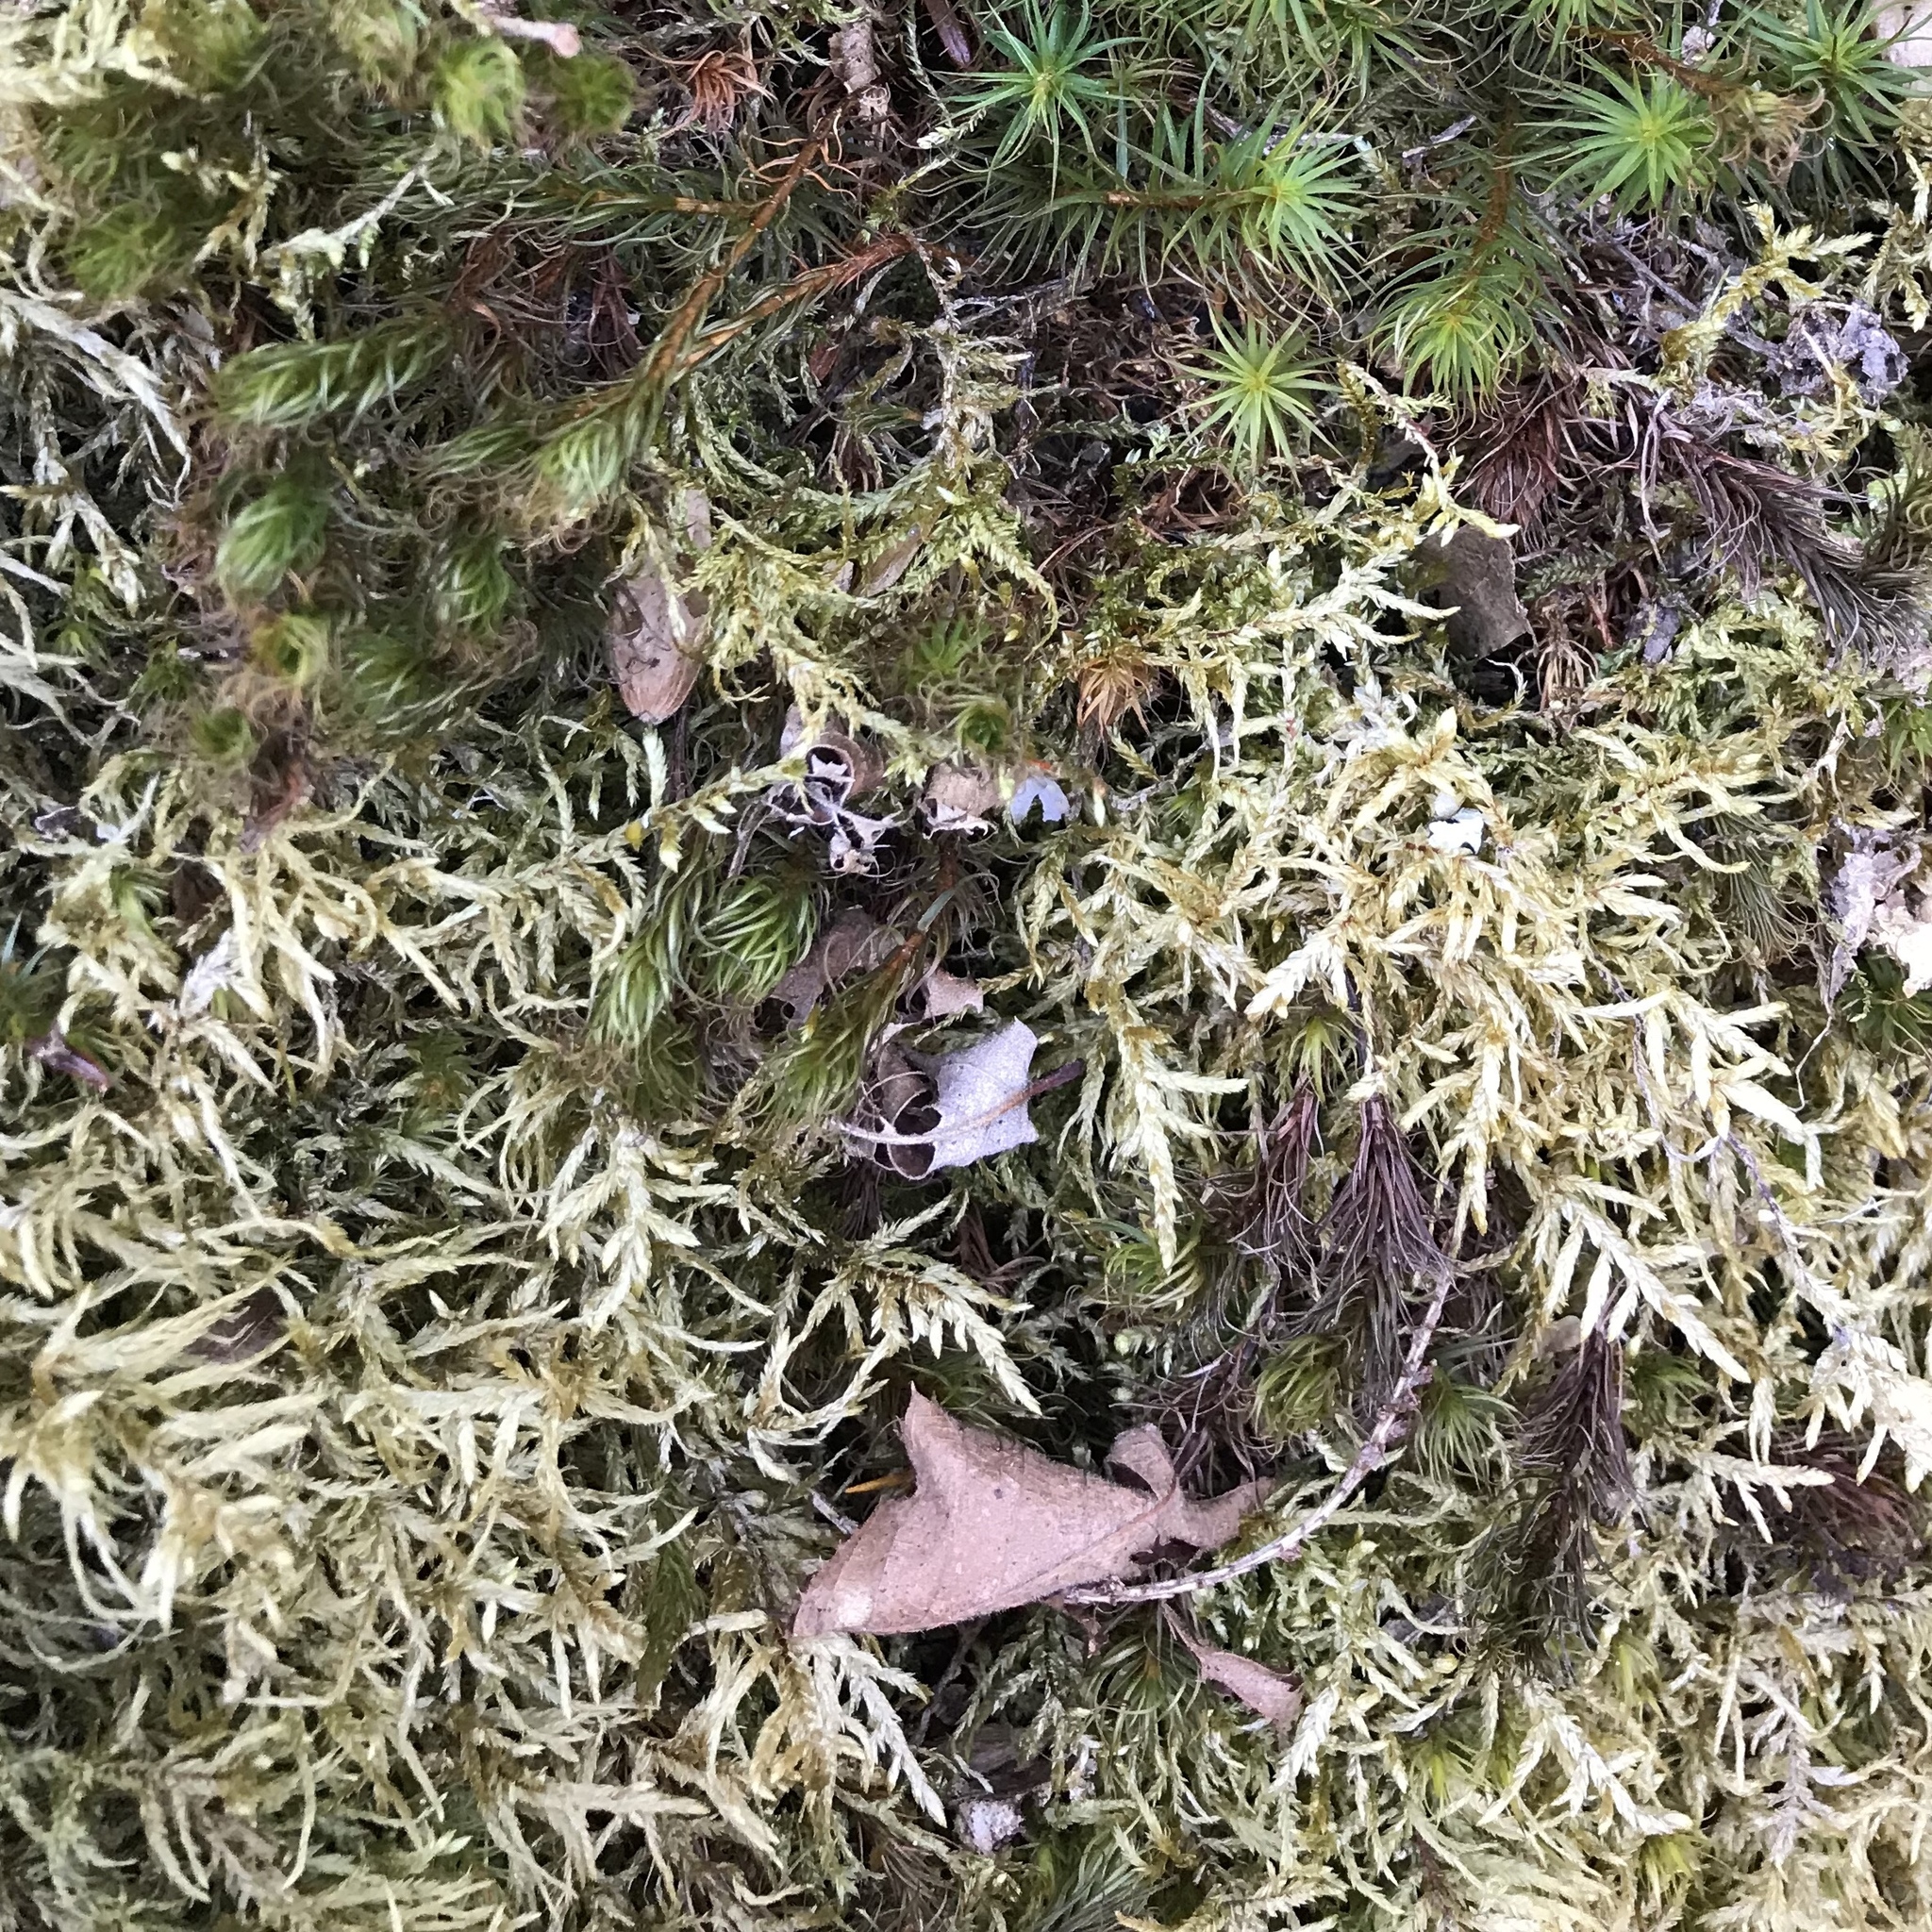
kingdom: Plantae
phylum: Bryophyta
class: Bryopsida
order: Hypnales
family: Hylocomiaceae
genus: Pleurozium
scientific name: Pleurozium schreberi
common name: Red-stemmed feather moss
